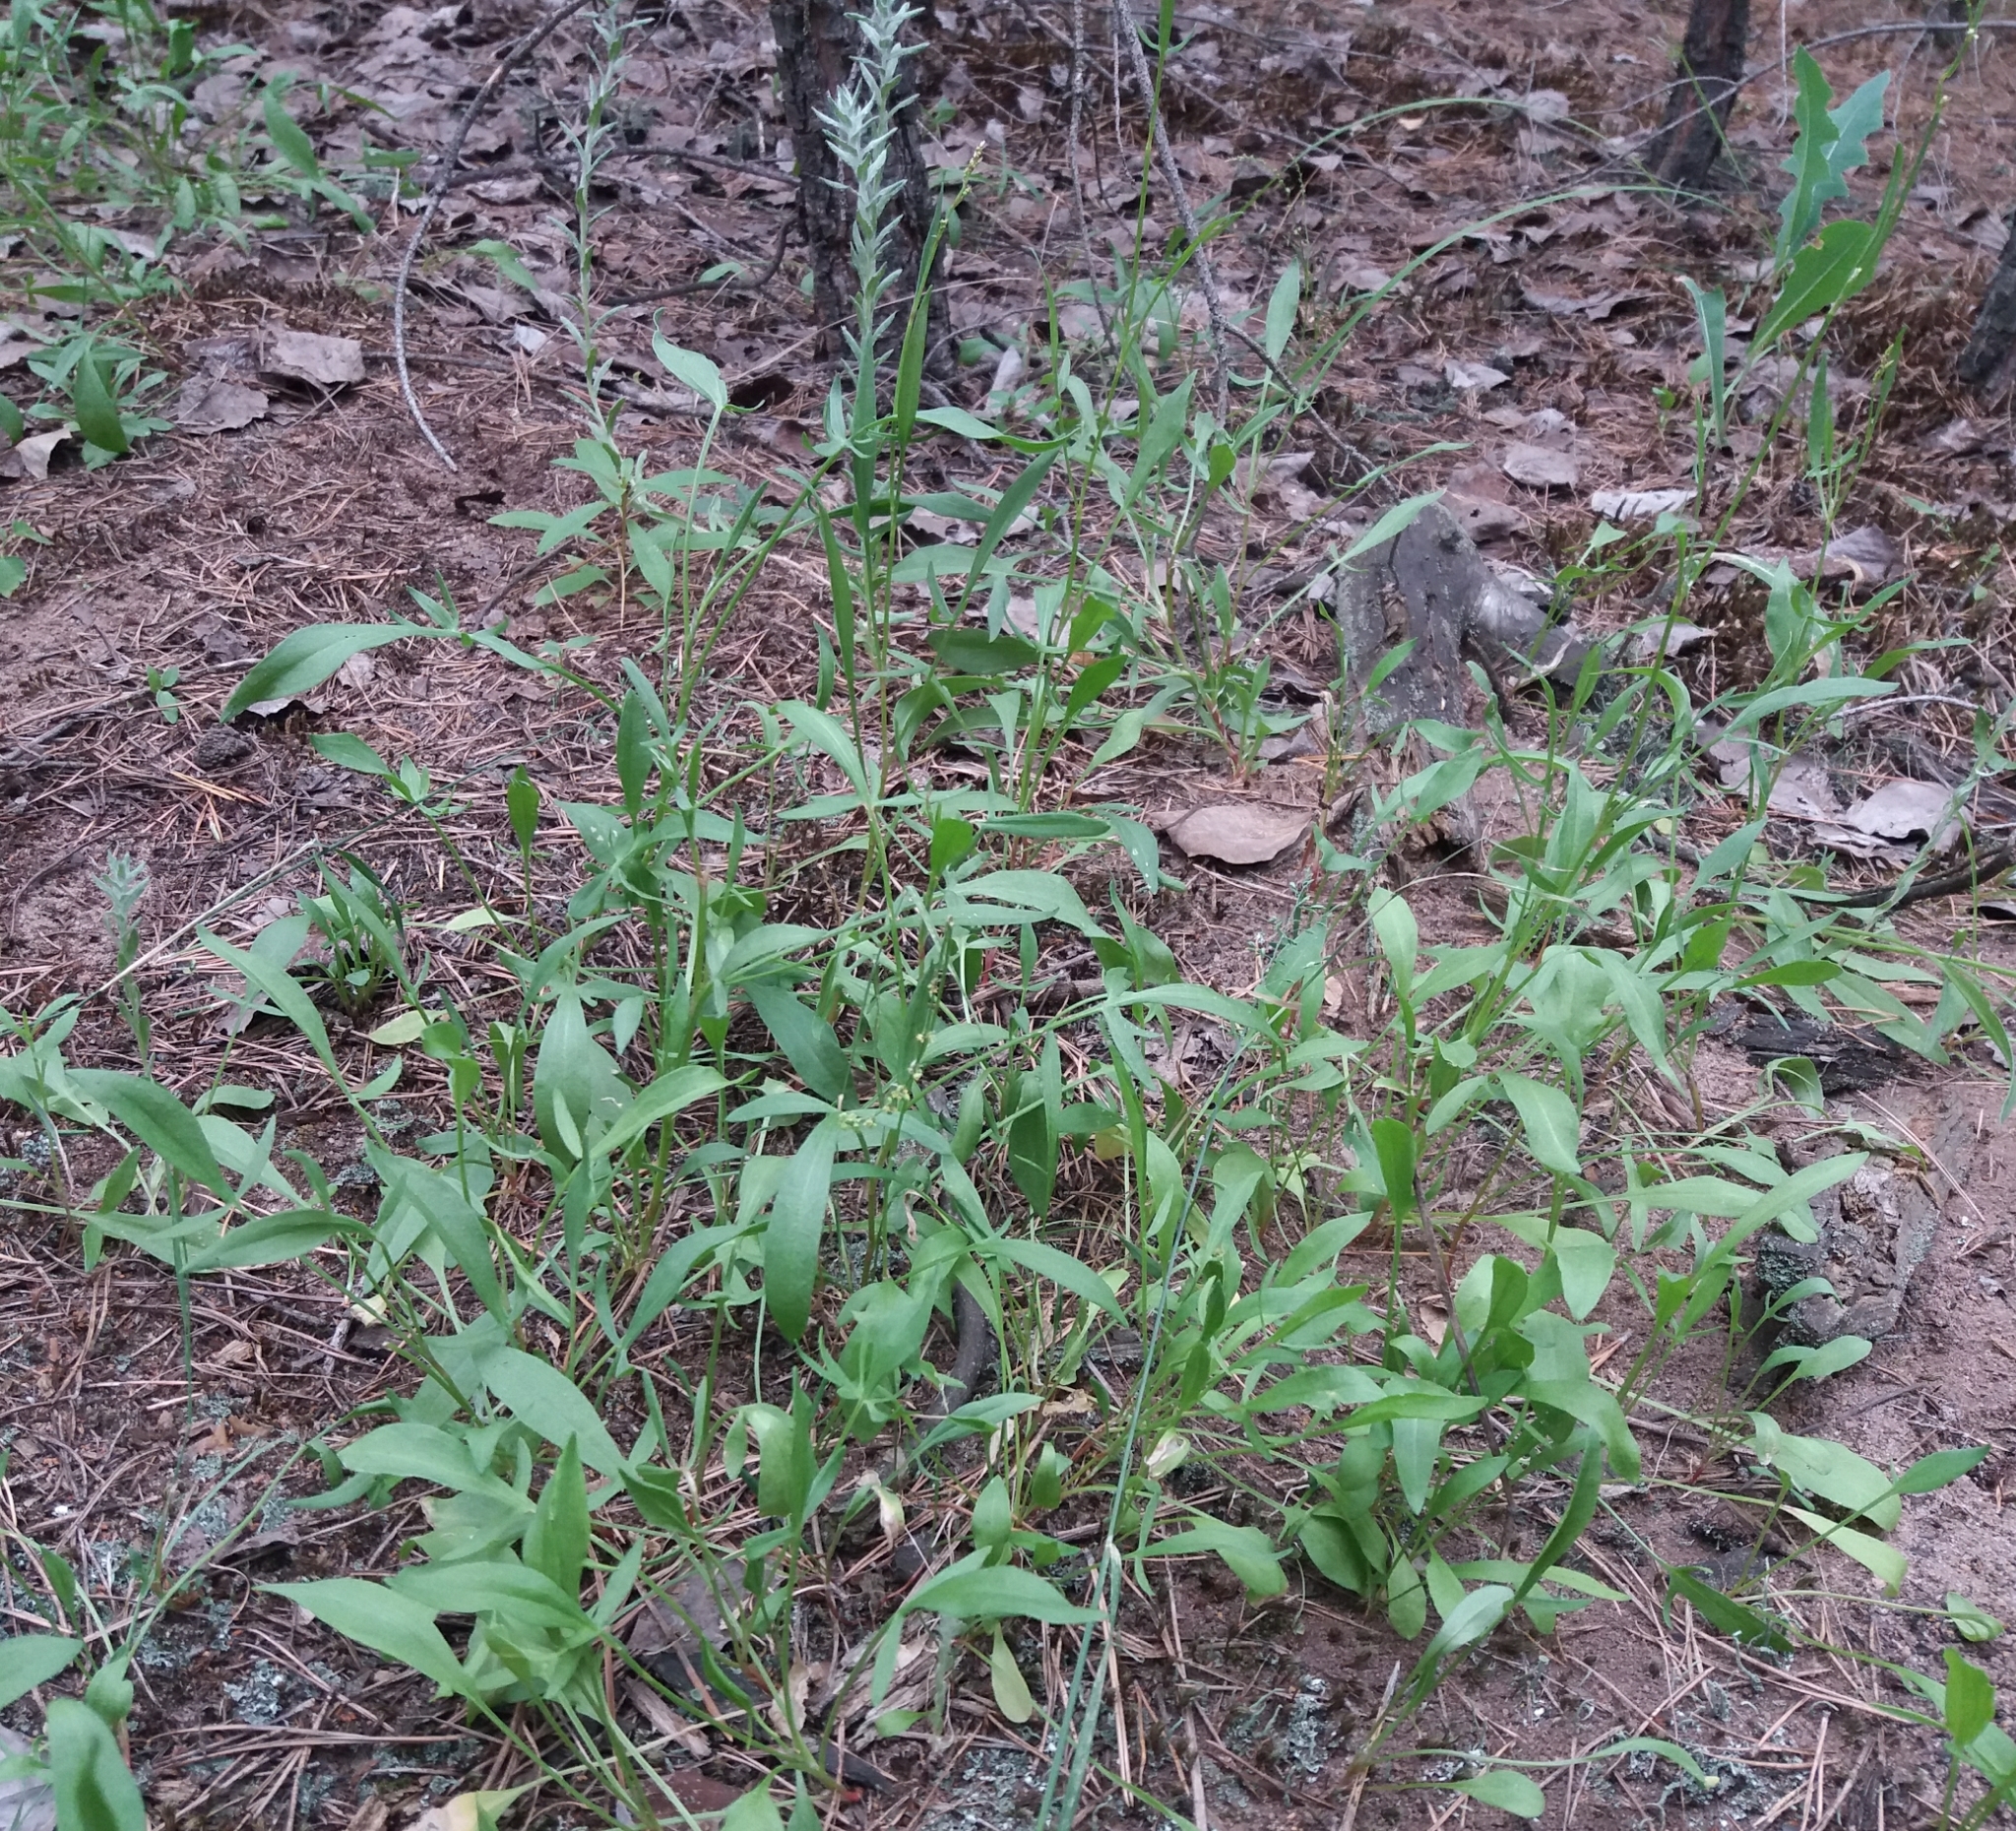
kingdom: Plantae
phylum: Tracheophyta
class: Magnoliopsida
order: Caryophyllales
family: Polygonaceae
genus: Rumex
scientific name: Rumex acetosella
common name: Common sheep sorrel
